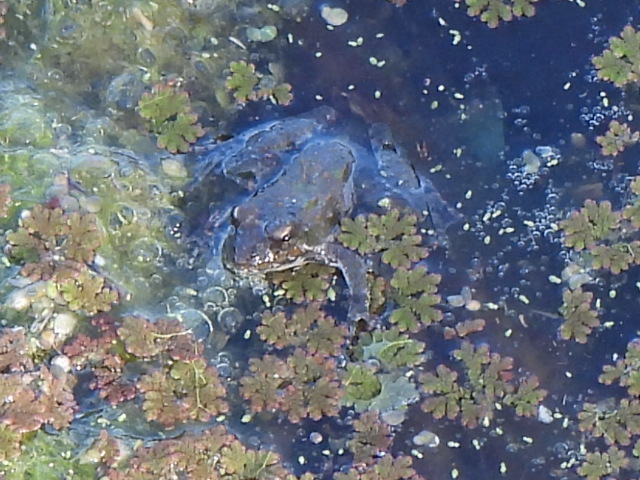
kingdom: Animalia
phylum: Chordata
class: Amphibia
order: Anura
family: Hylidae
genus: Acris
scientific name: Acris blanchardi
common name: Blanchard's cricket frog
